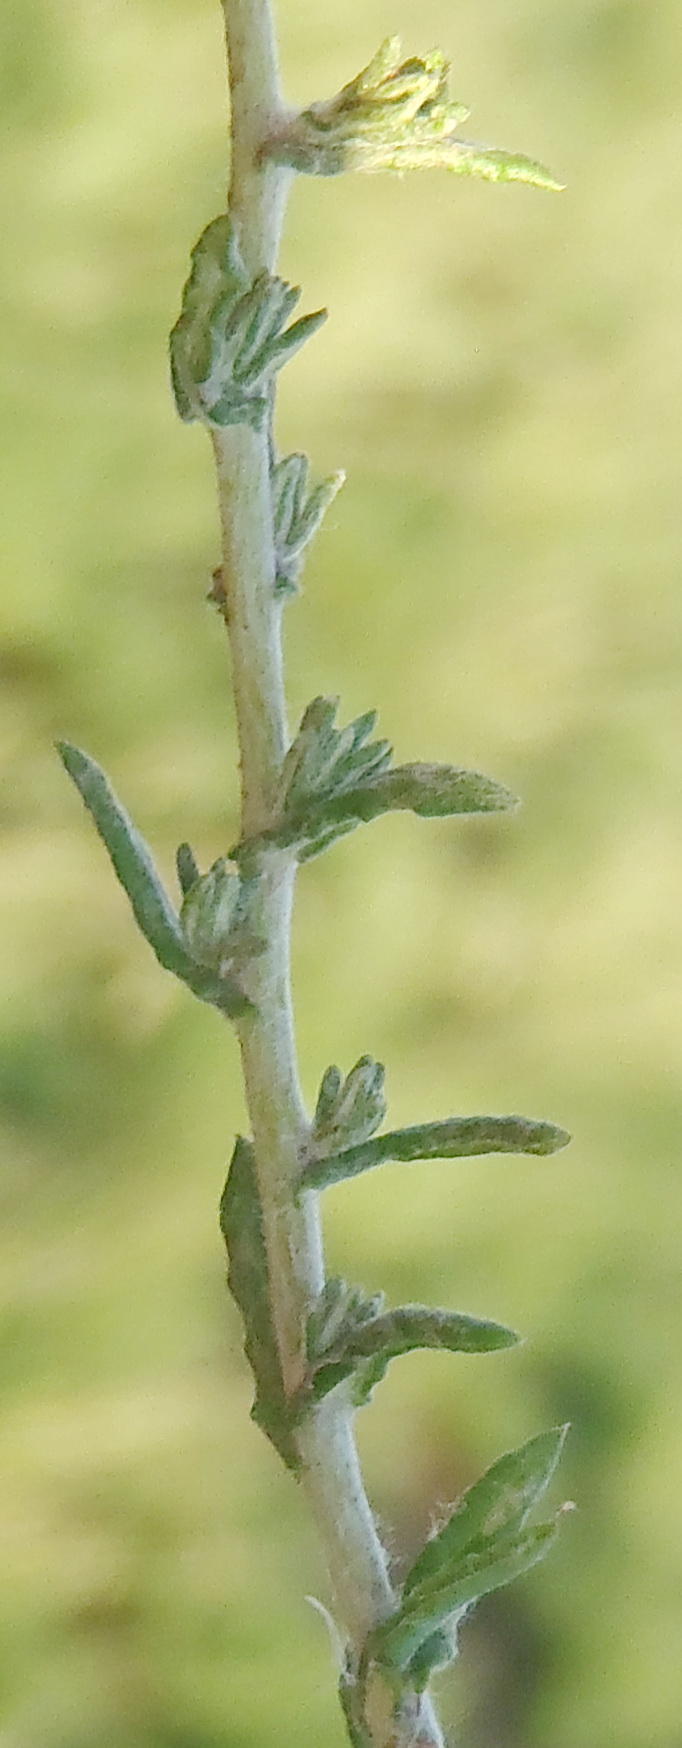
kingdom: Plantae
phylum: Tracheophyta
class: Magnoliopsida
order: Asterales
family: Asteraceae
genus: Helichrysum
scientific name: Helichrysum dregeanum
